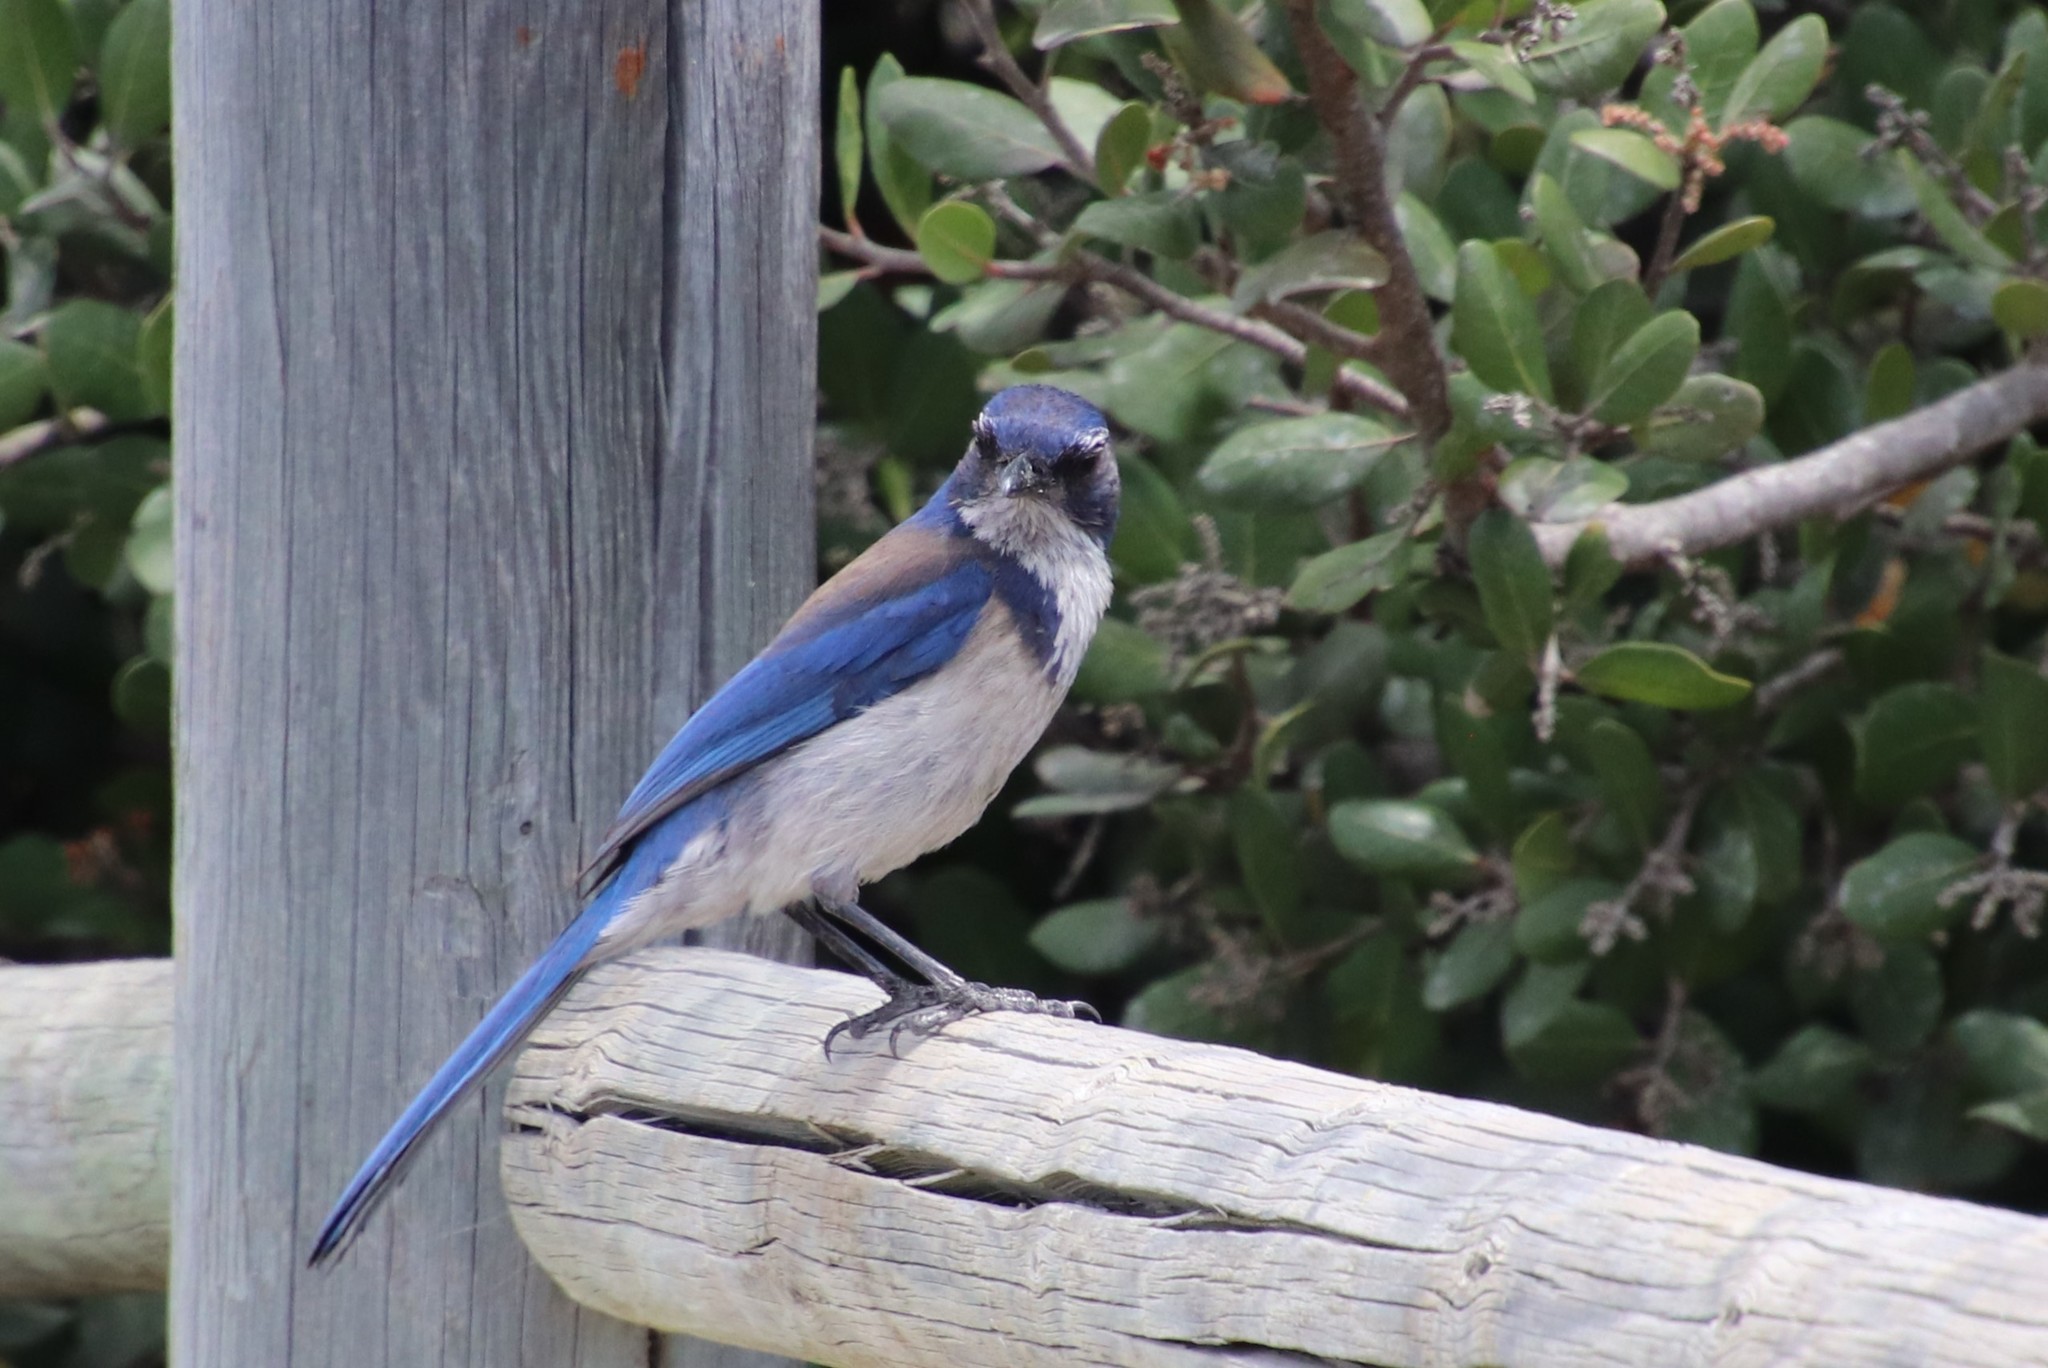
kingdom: Animalia
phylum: Chordata
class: Aves
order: Passeriformes
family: Corvidae
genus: Aphelocoma
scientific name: Aphelocoma californica
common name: California scrub-jay
